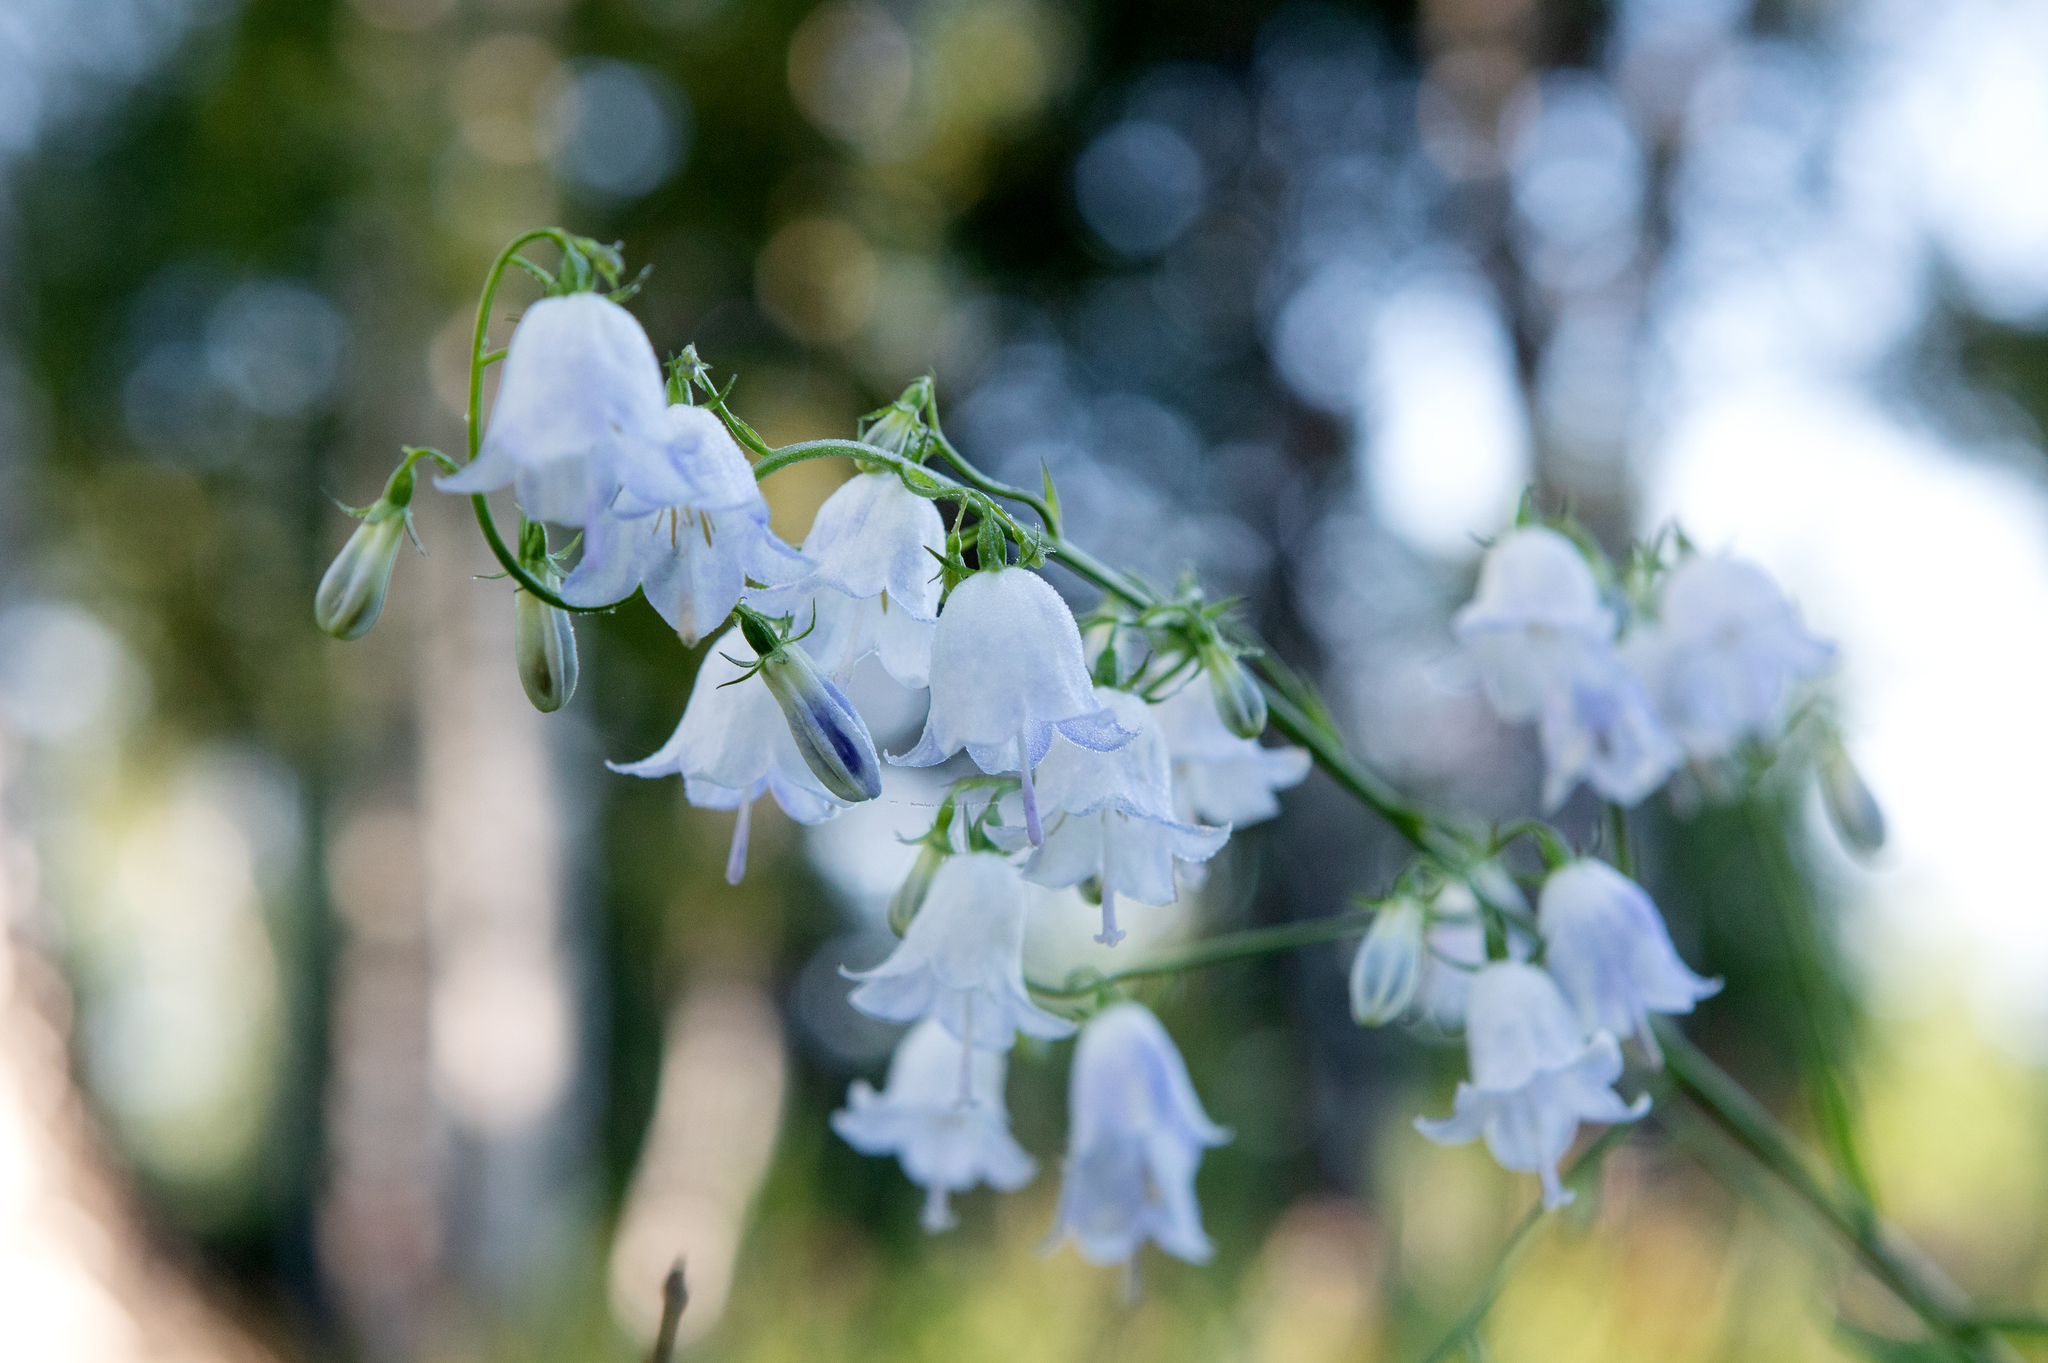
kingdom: Plantae
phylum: Tracheophyta
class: Magnoliopsida
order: Asterales
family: Campanulaceae
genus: Adenophora
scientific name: Adenophora liliifolia
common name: Lilyleaf ladybells
